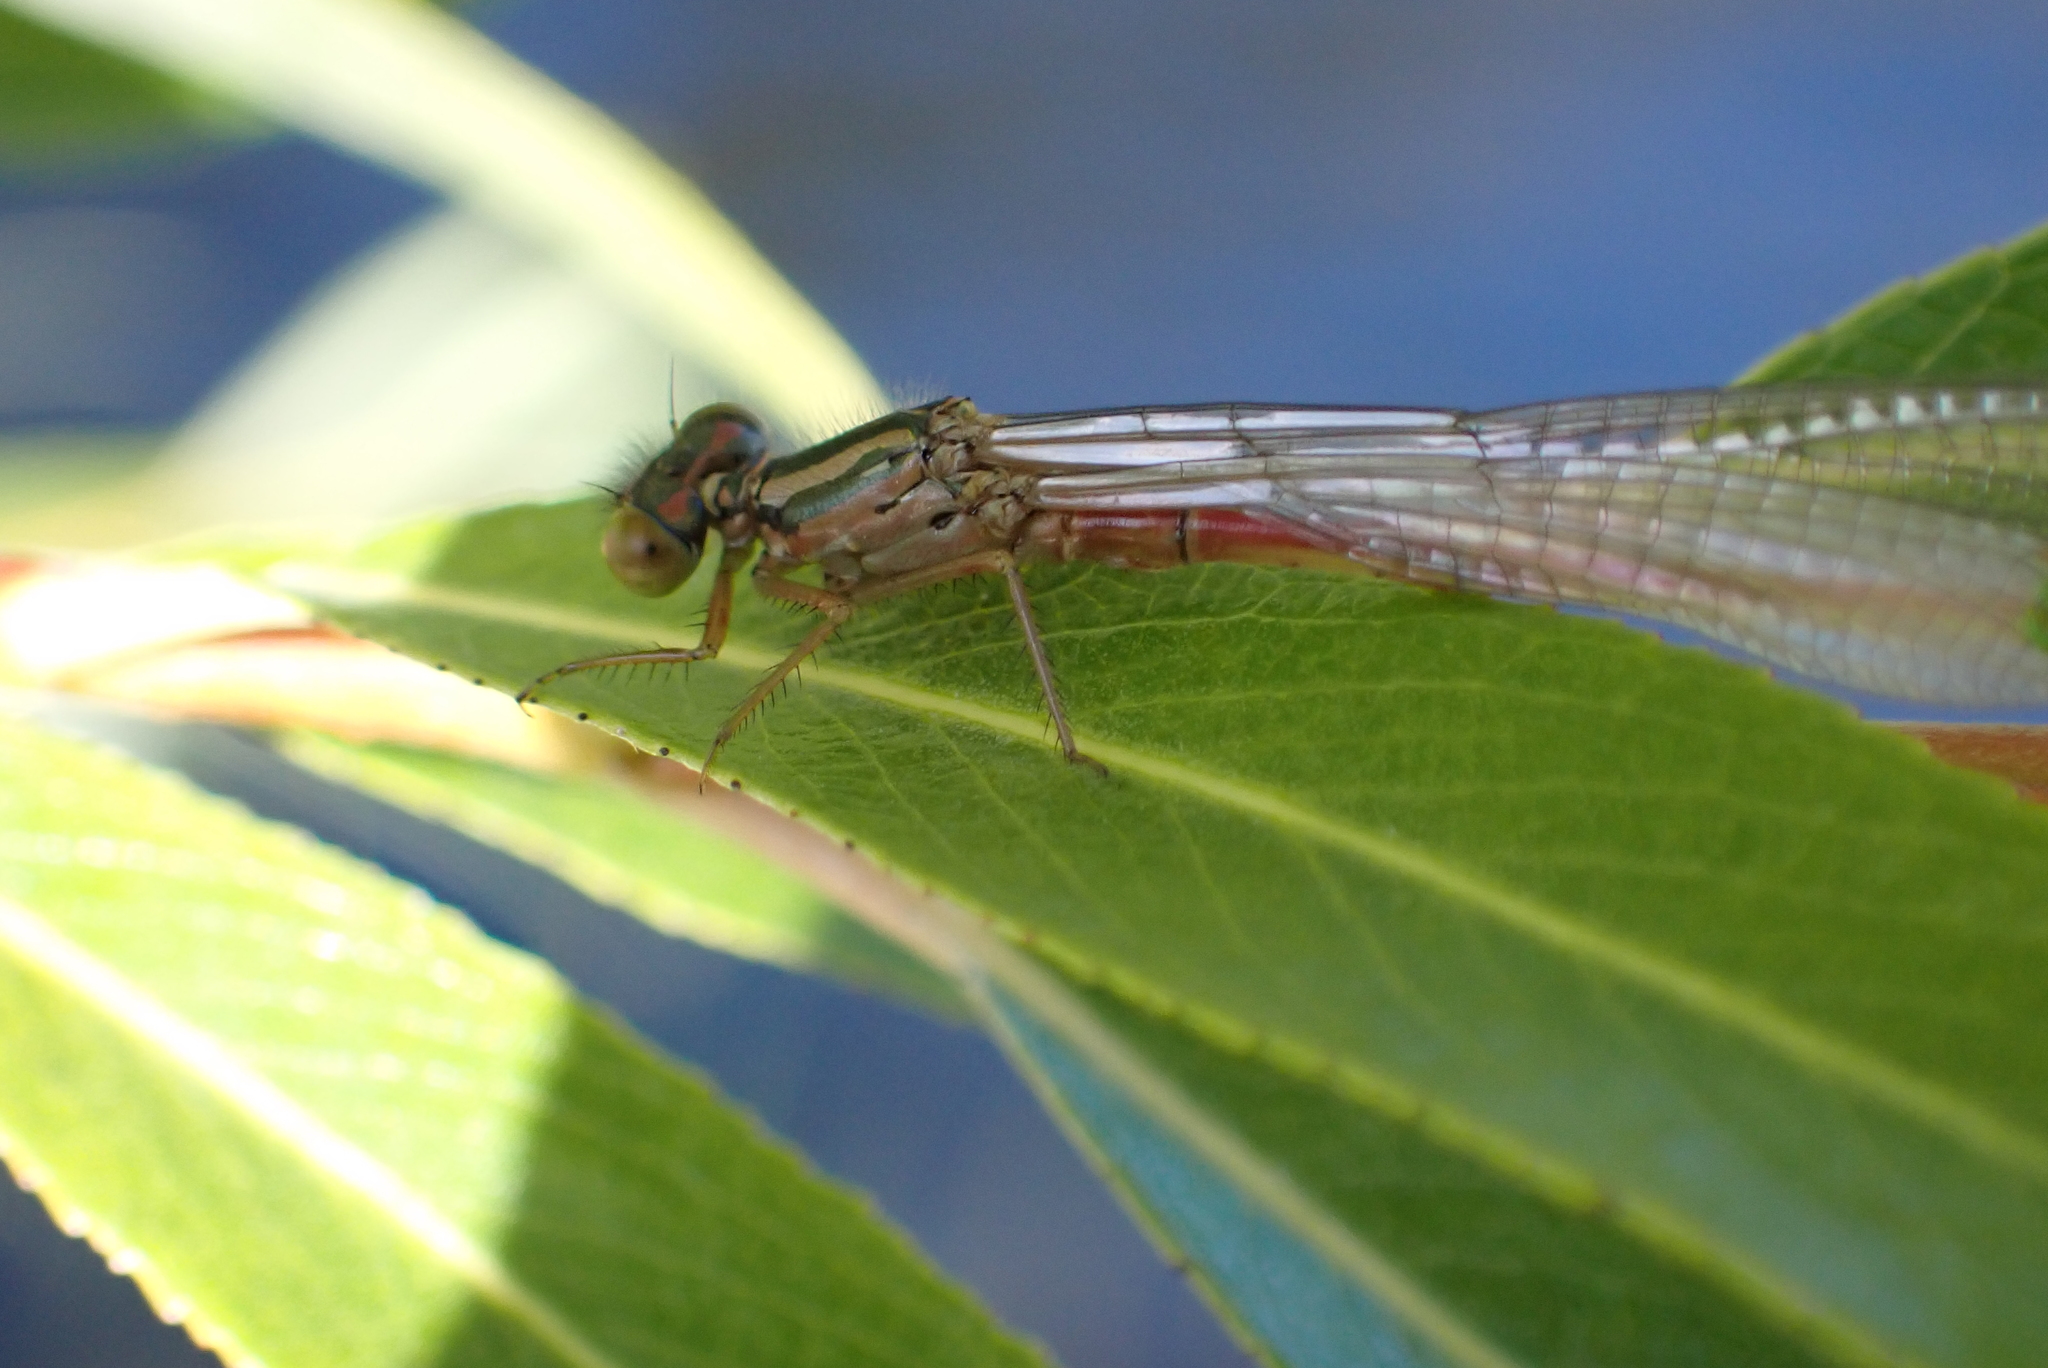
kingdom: Animalia
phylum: Arthropoda
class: Insecta
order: Odonata
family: Coenagrionidae
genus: Xanthocnemis
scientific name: Xanthocnemis zealandica
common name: Common redcoat damselfly
